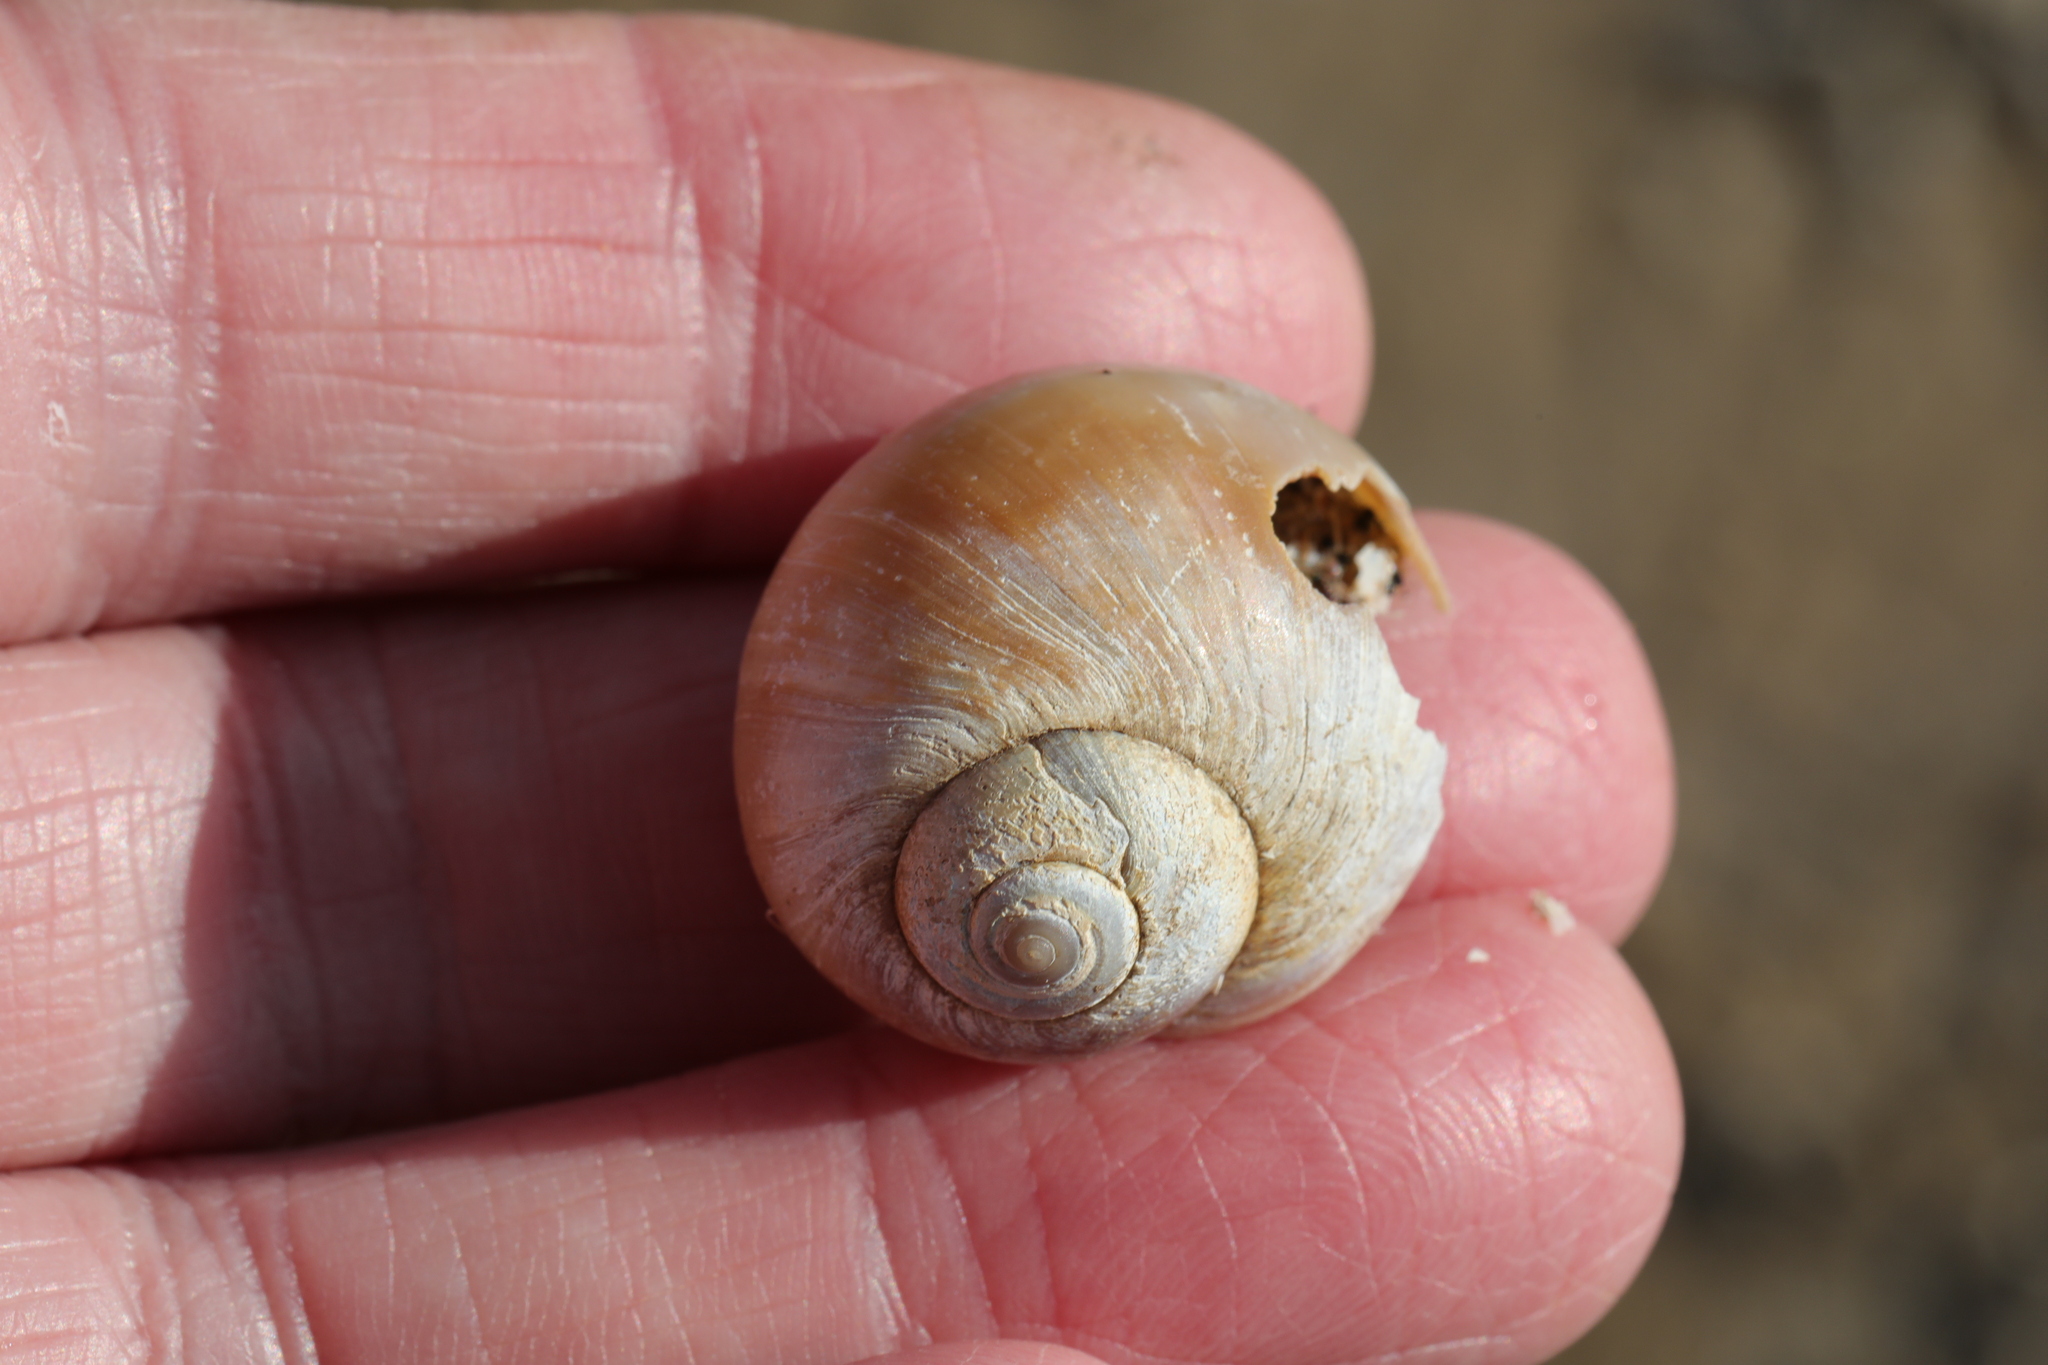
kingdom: Animalia
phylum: Mollusca
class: Gastropoda
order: Littorinimorpha
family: Naticidae
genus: Euspira
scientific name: Euspira catena
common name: Necklace shell
